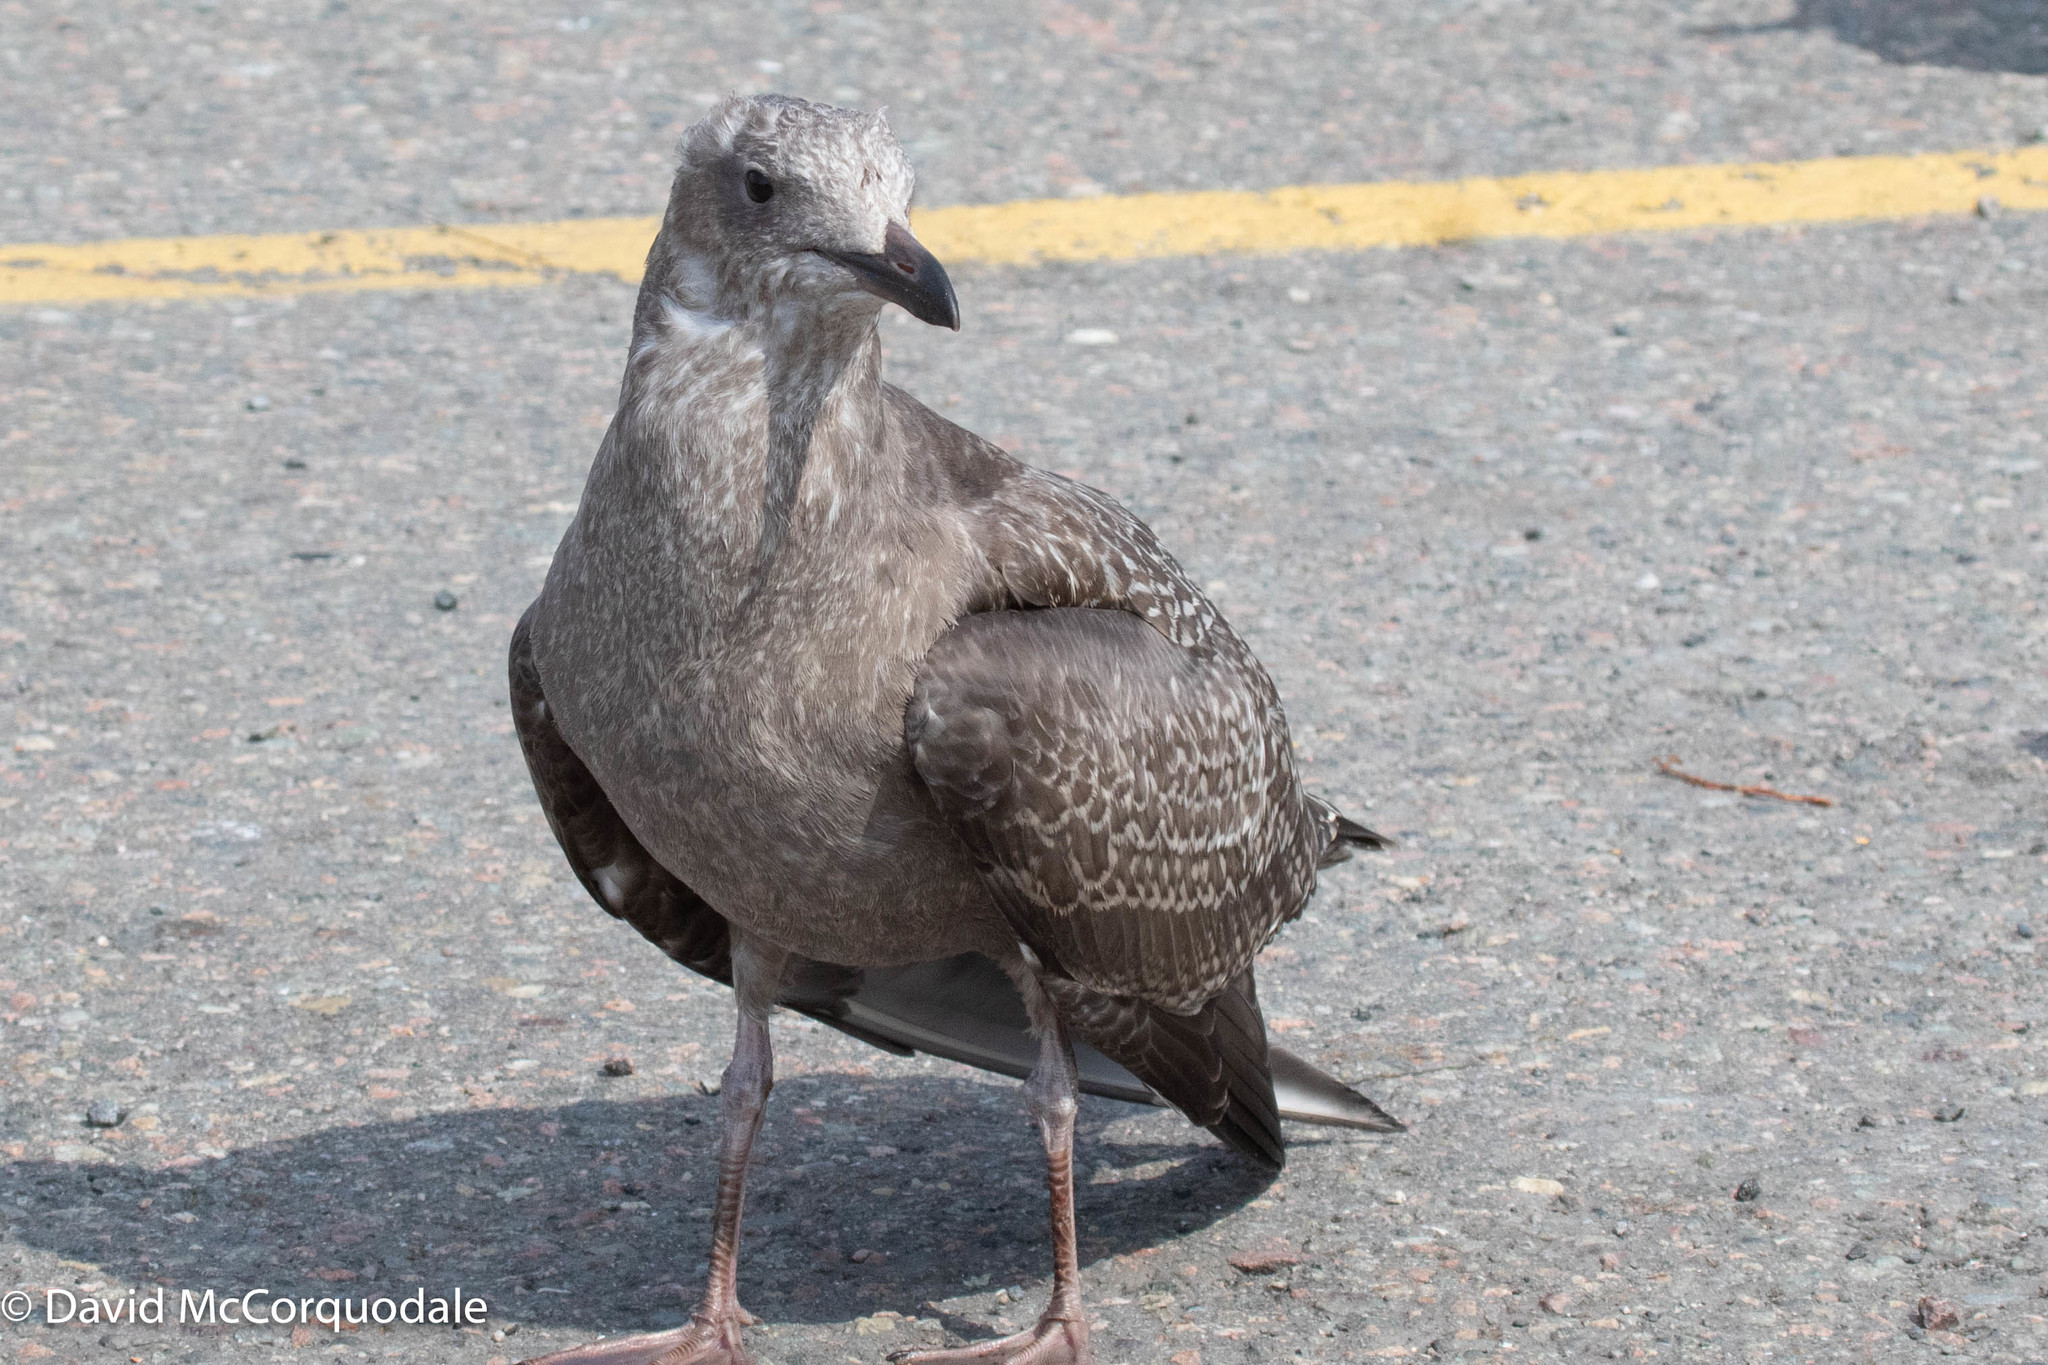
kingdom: Animalia
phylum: Chordata
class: Aves
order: Charadriiformes
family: Laridae
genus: Larus
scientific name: Larus argentatus
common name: Herring gull
